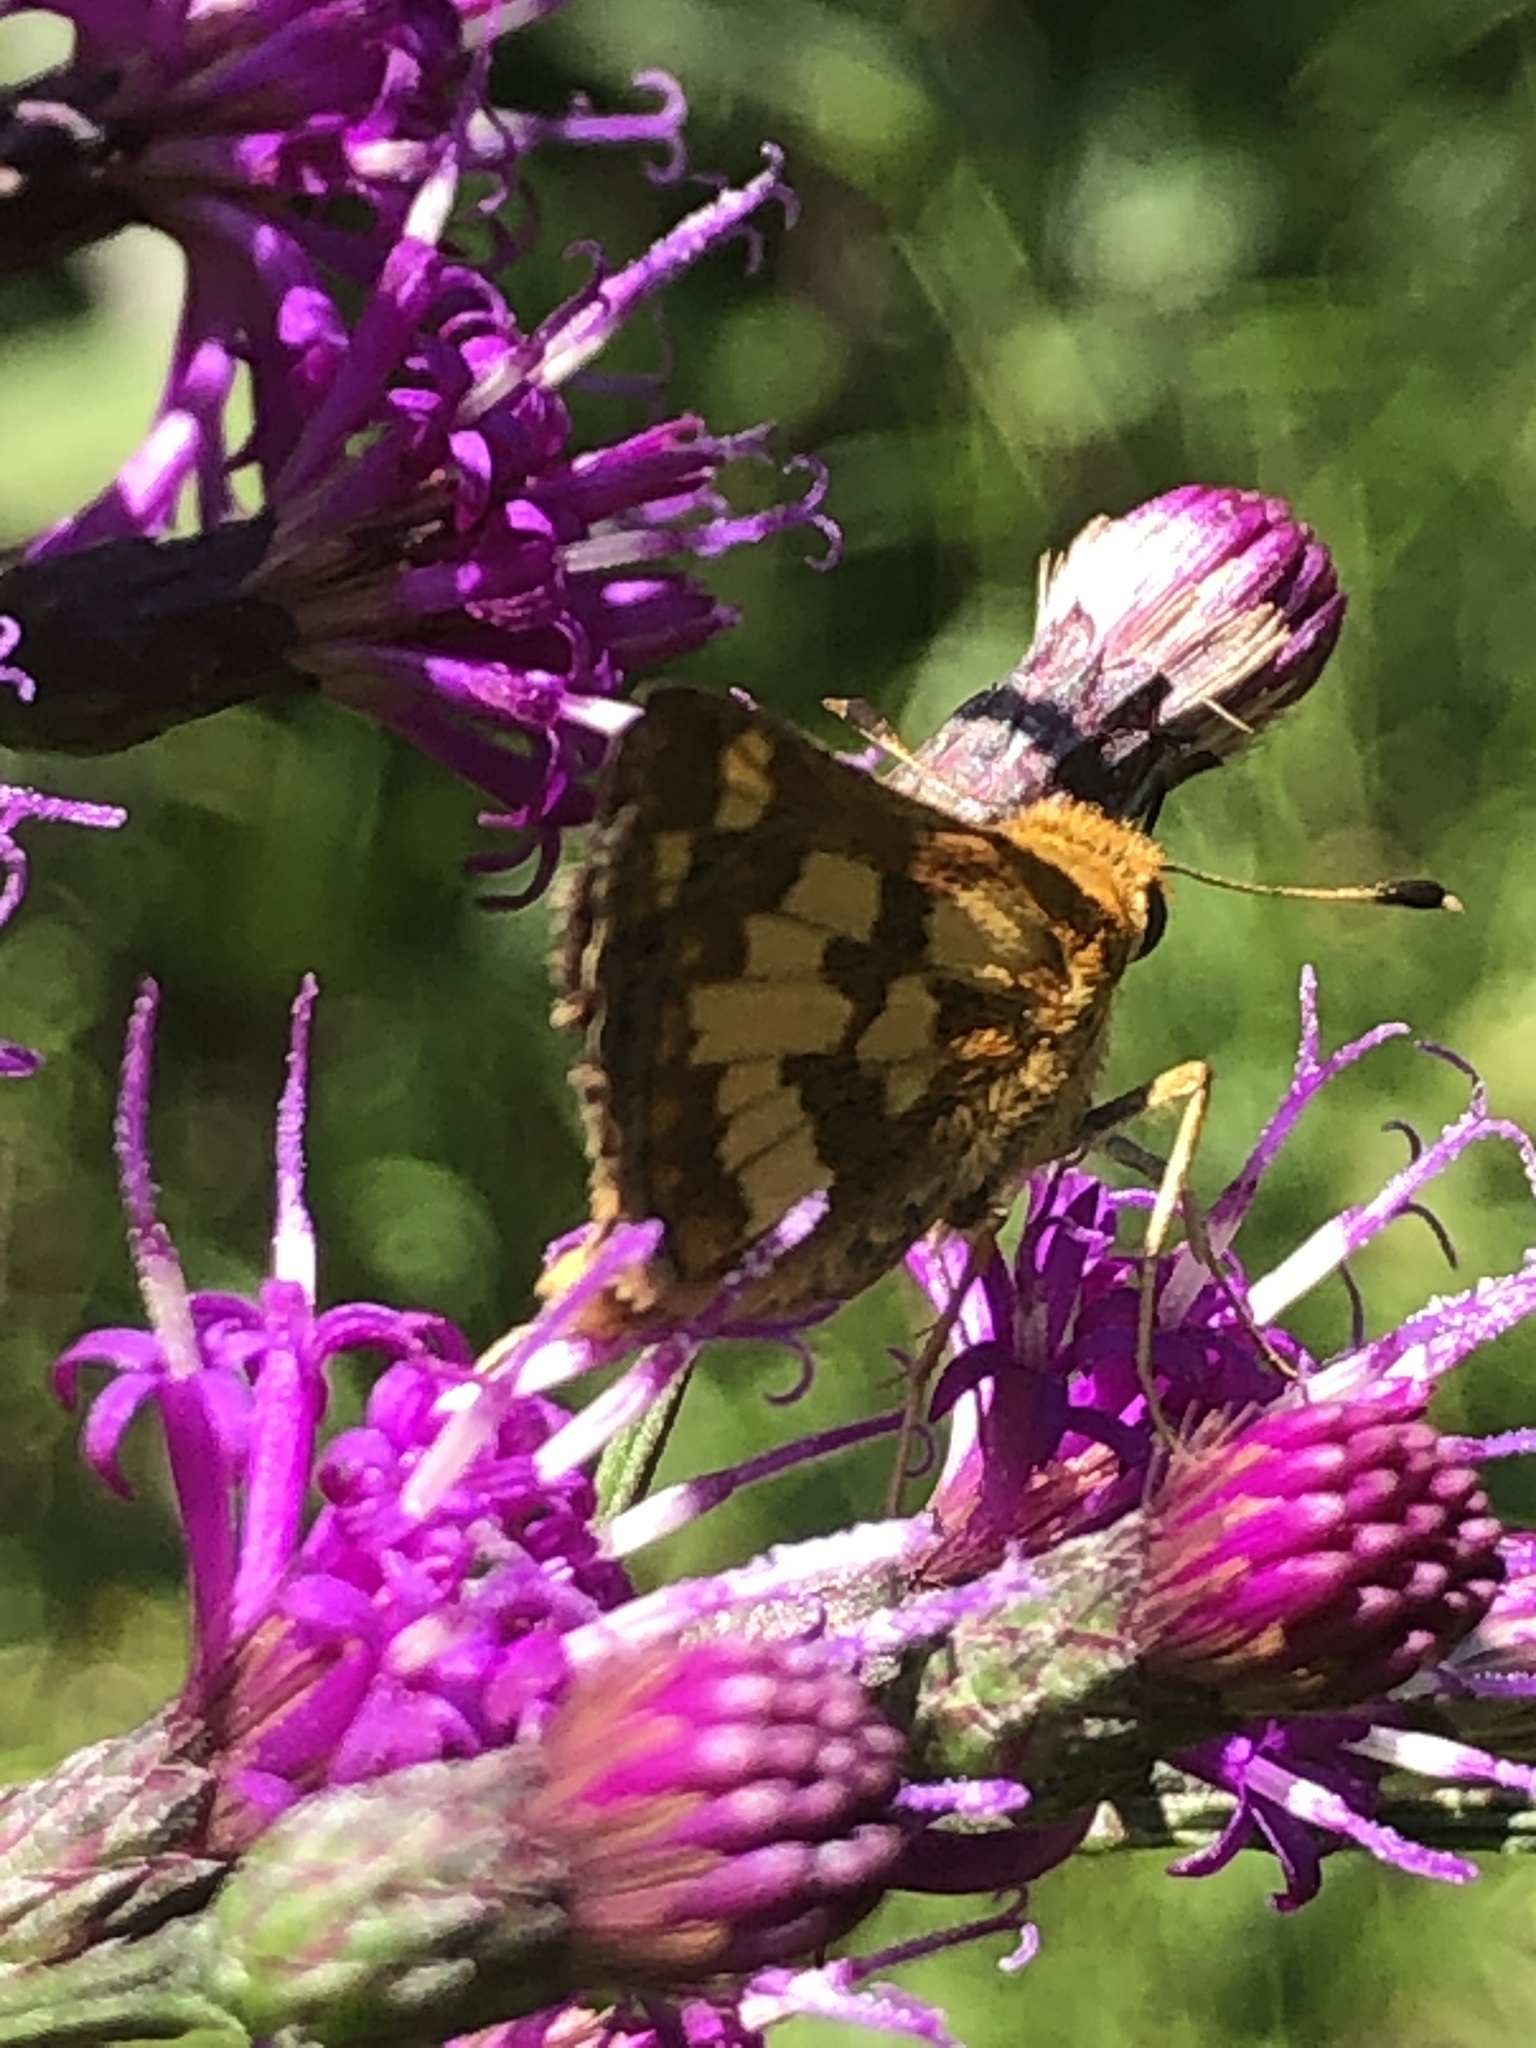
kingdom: Animalia
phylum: Arthropoda
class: Insecta
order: Lepidoptera
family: Hesperiidae
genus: Polites
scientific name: Polites coras
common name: Peck's skipper
